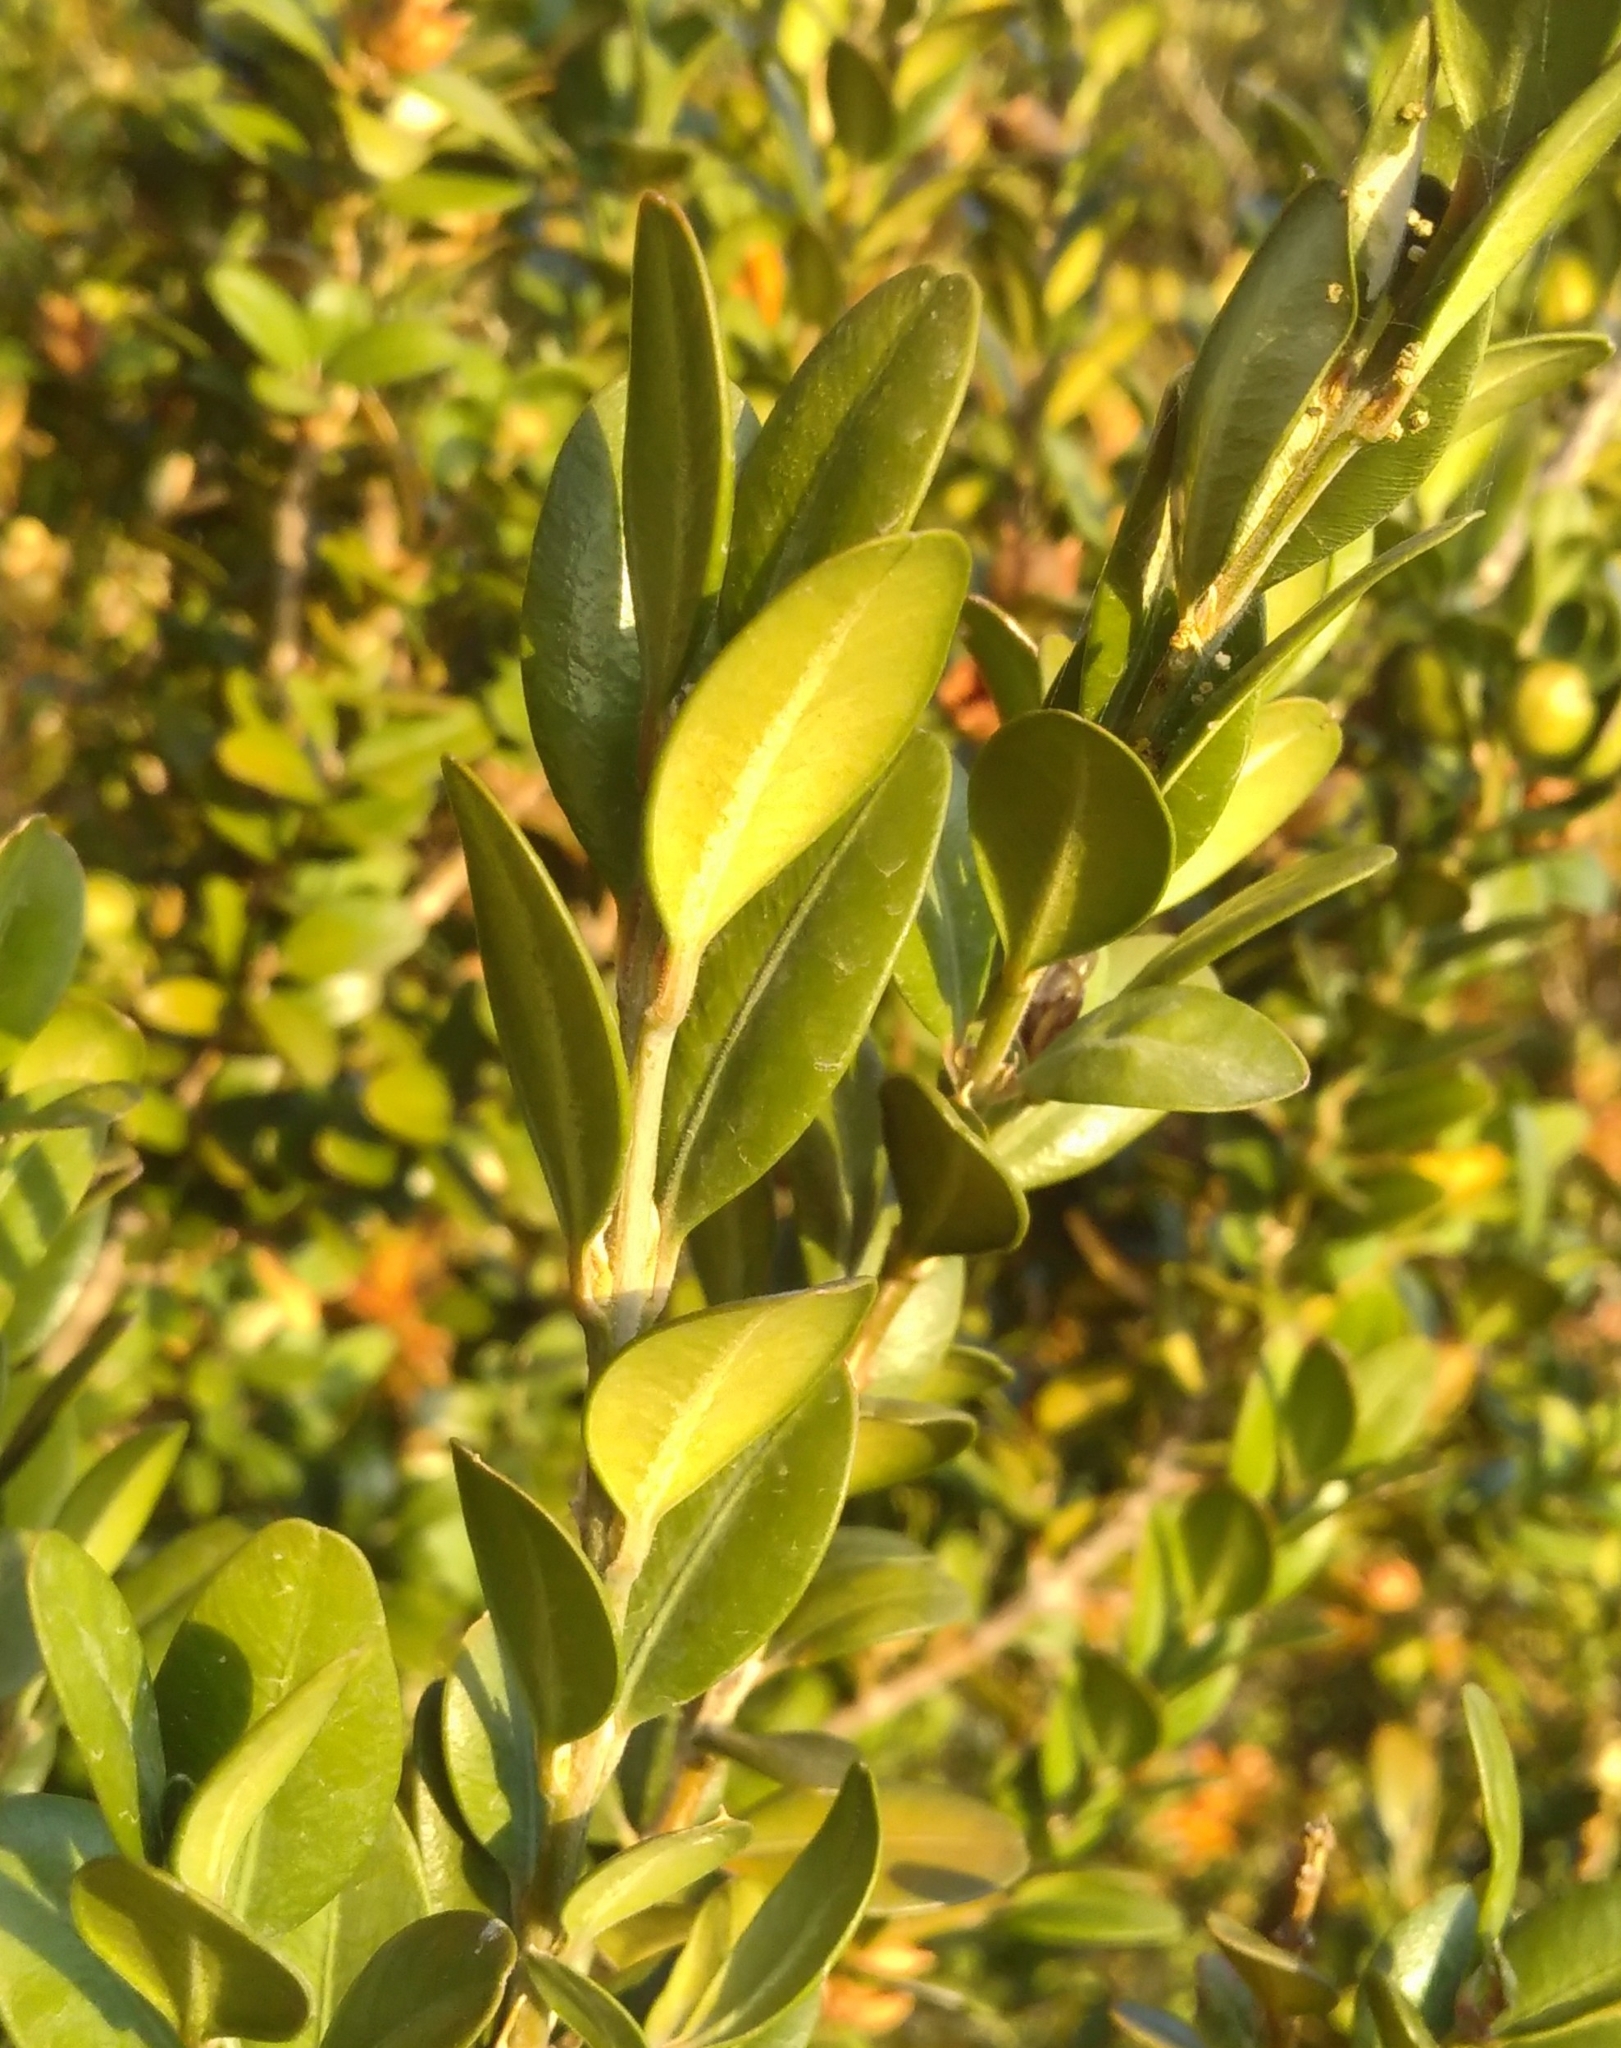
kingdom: Plantae
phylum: Tracheophyta
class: Magnoliopsida
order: Buxales
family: Buxaceae
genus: Buxus
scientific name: Buxus sempervirens
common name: Box
